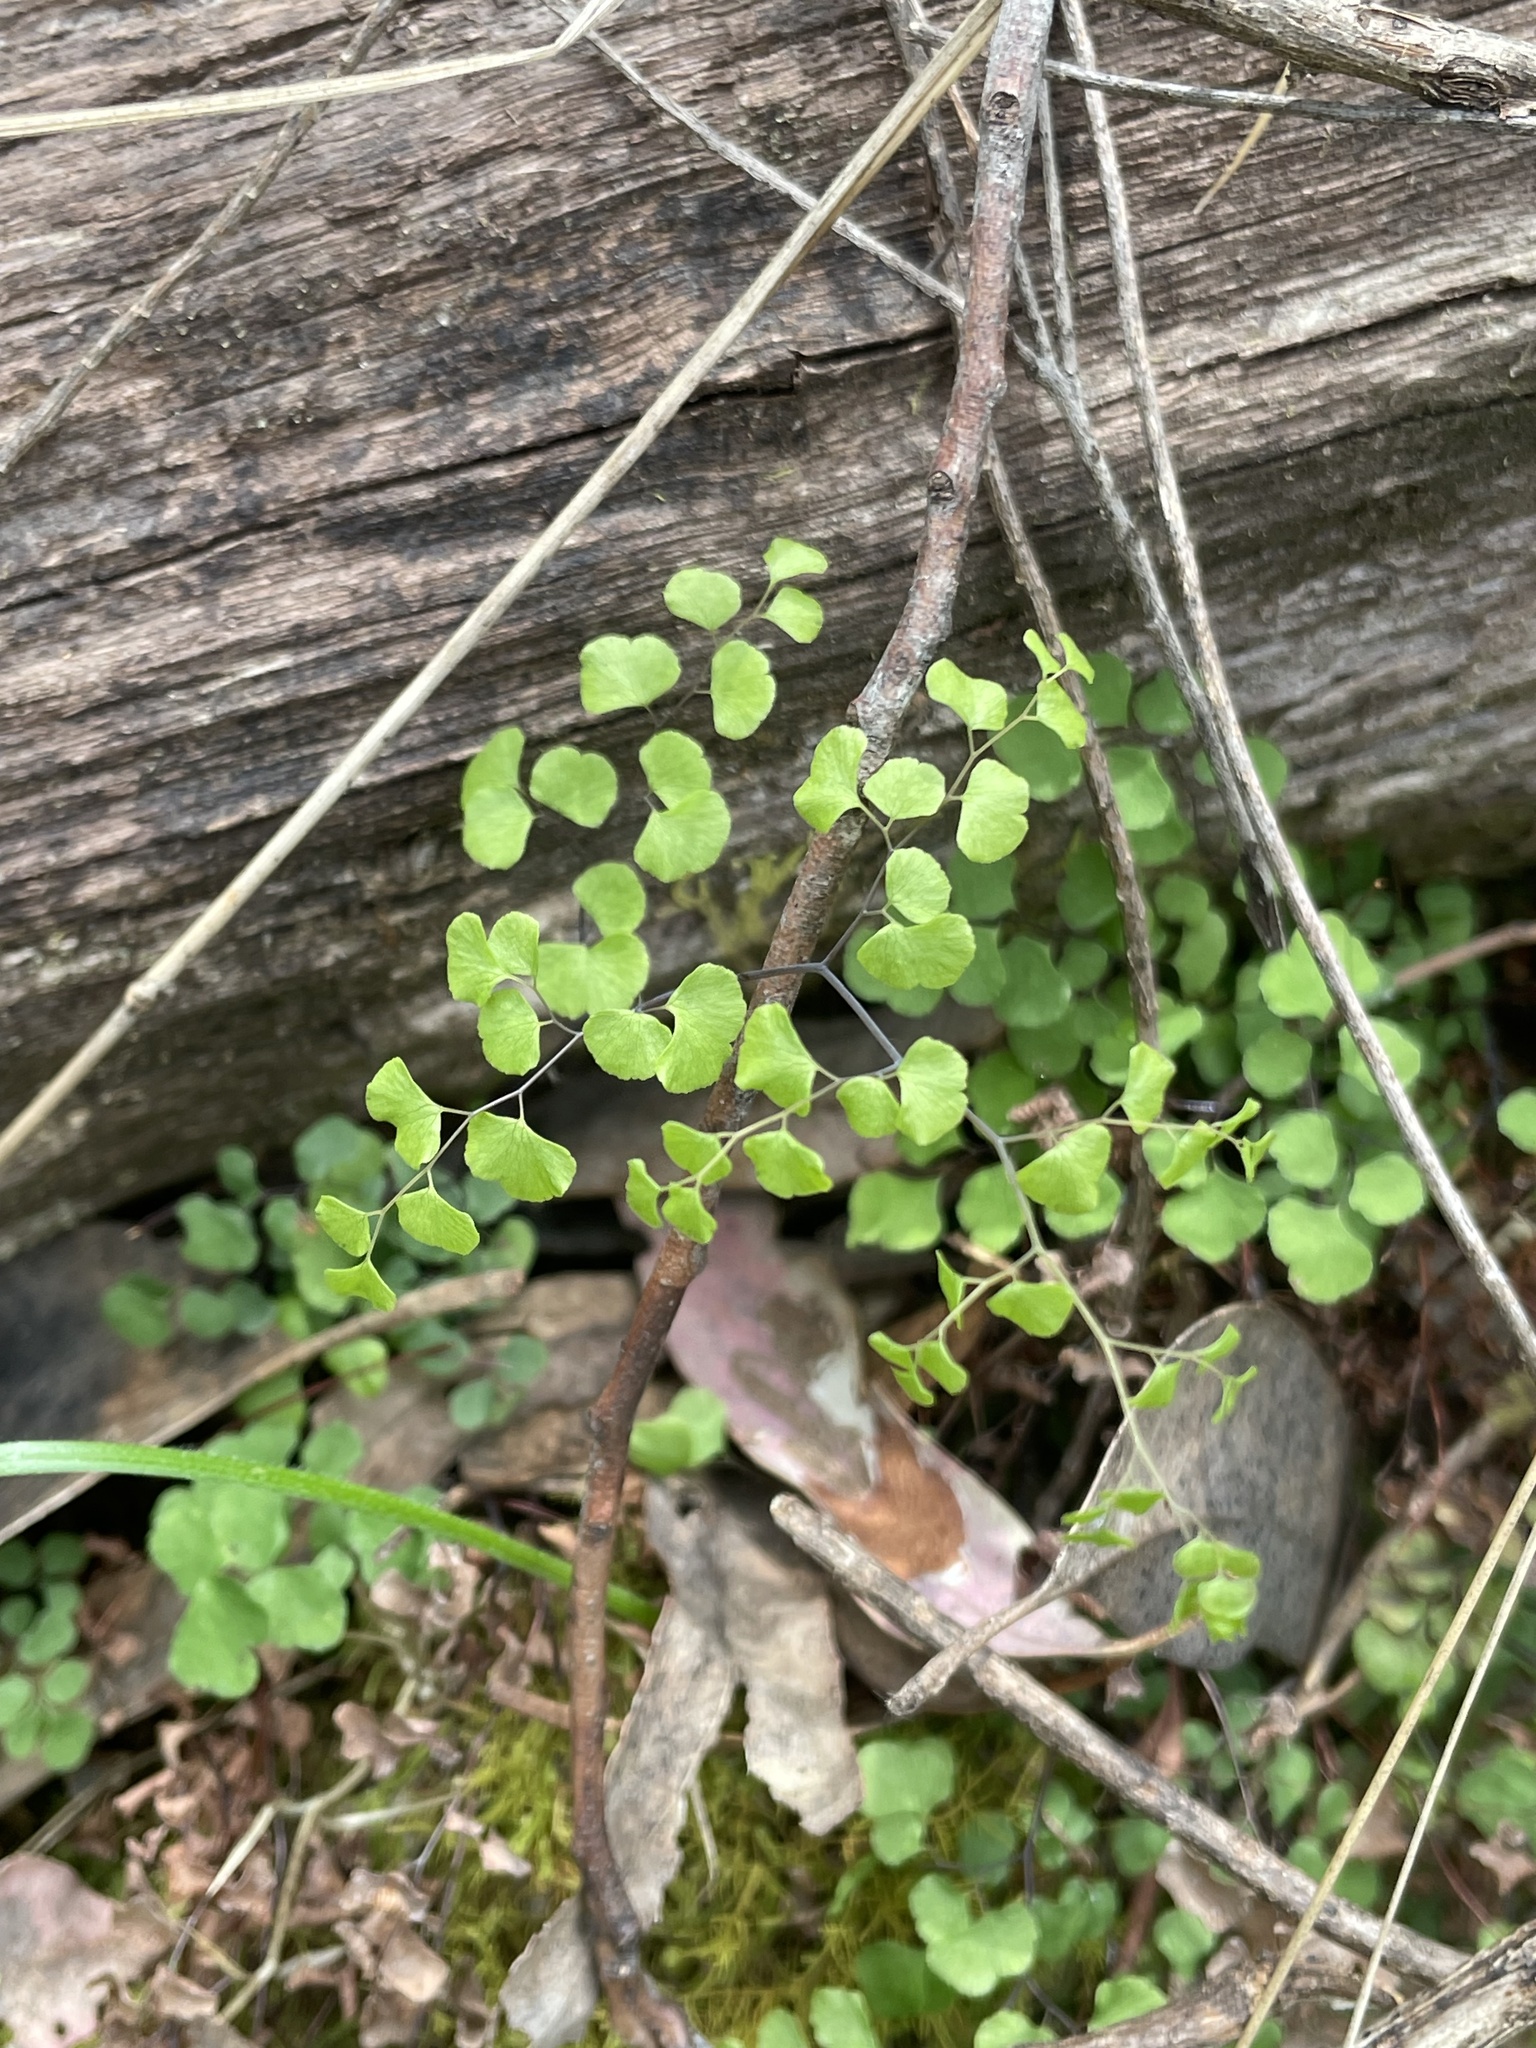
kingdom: Plantae
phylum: Tracheophyta
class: Polypodiopsida
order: Polypodiales
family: Pteridaceae
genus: Adiantum
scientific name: Adiantum aethiopicum
